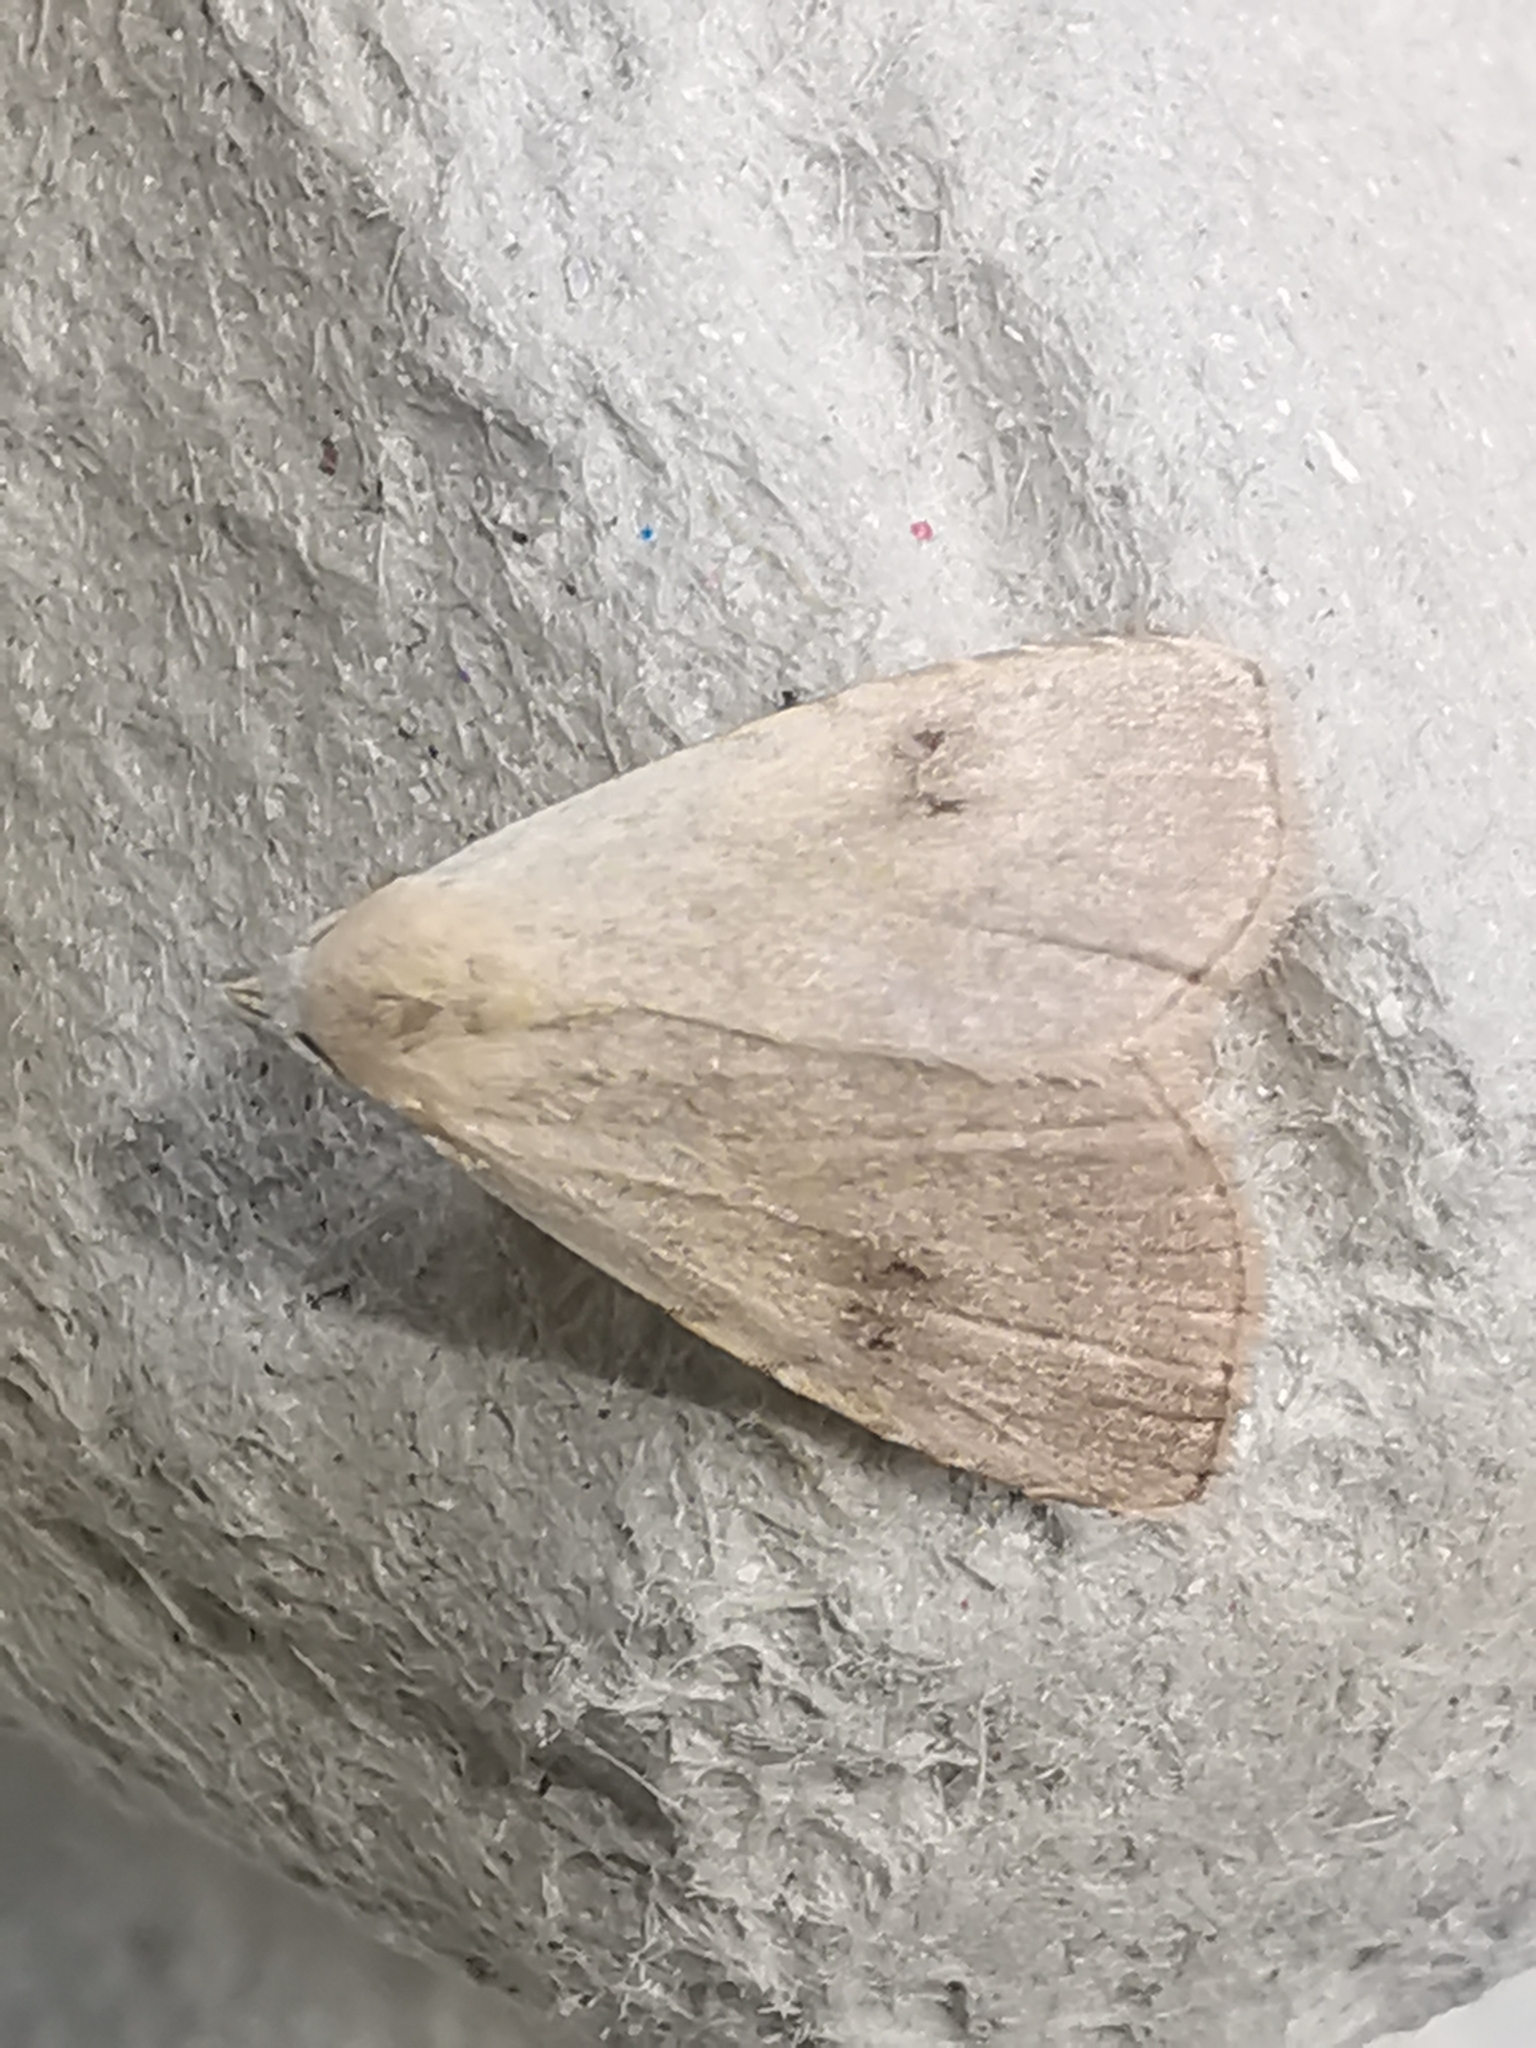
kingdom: Animalia
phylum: Arthropoda
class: Insecta
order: Lepidoptera
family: Erebidae
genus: Rivula
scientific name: Rivula sericealis
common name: Straw dot
